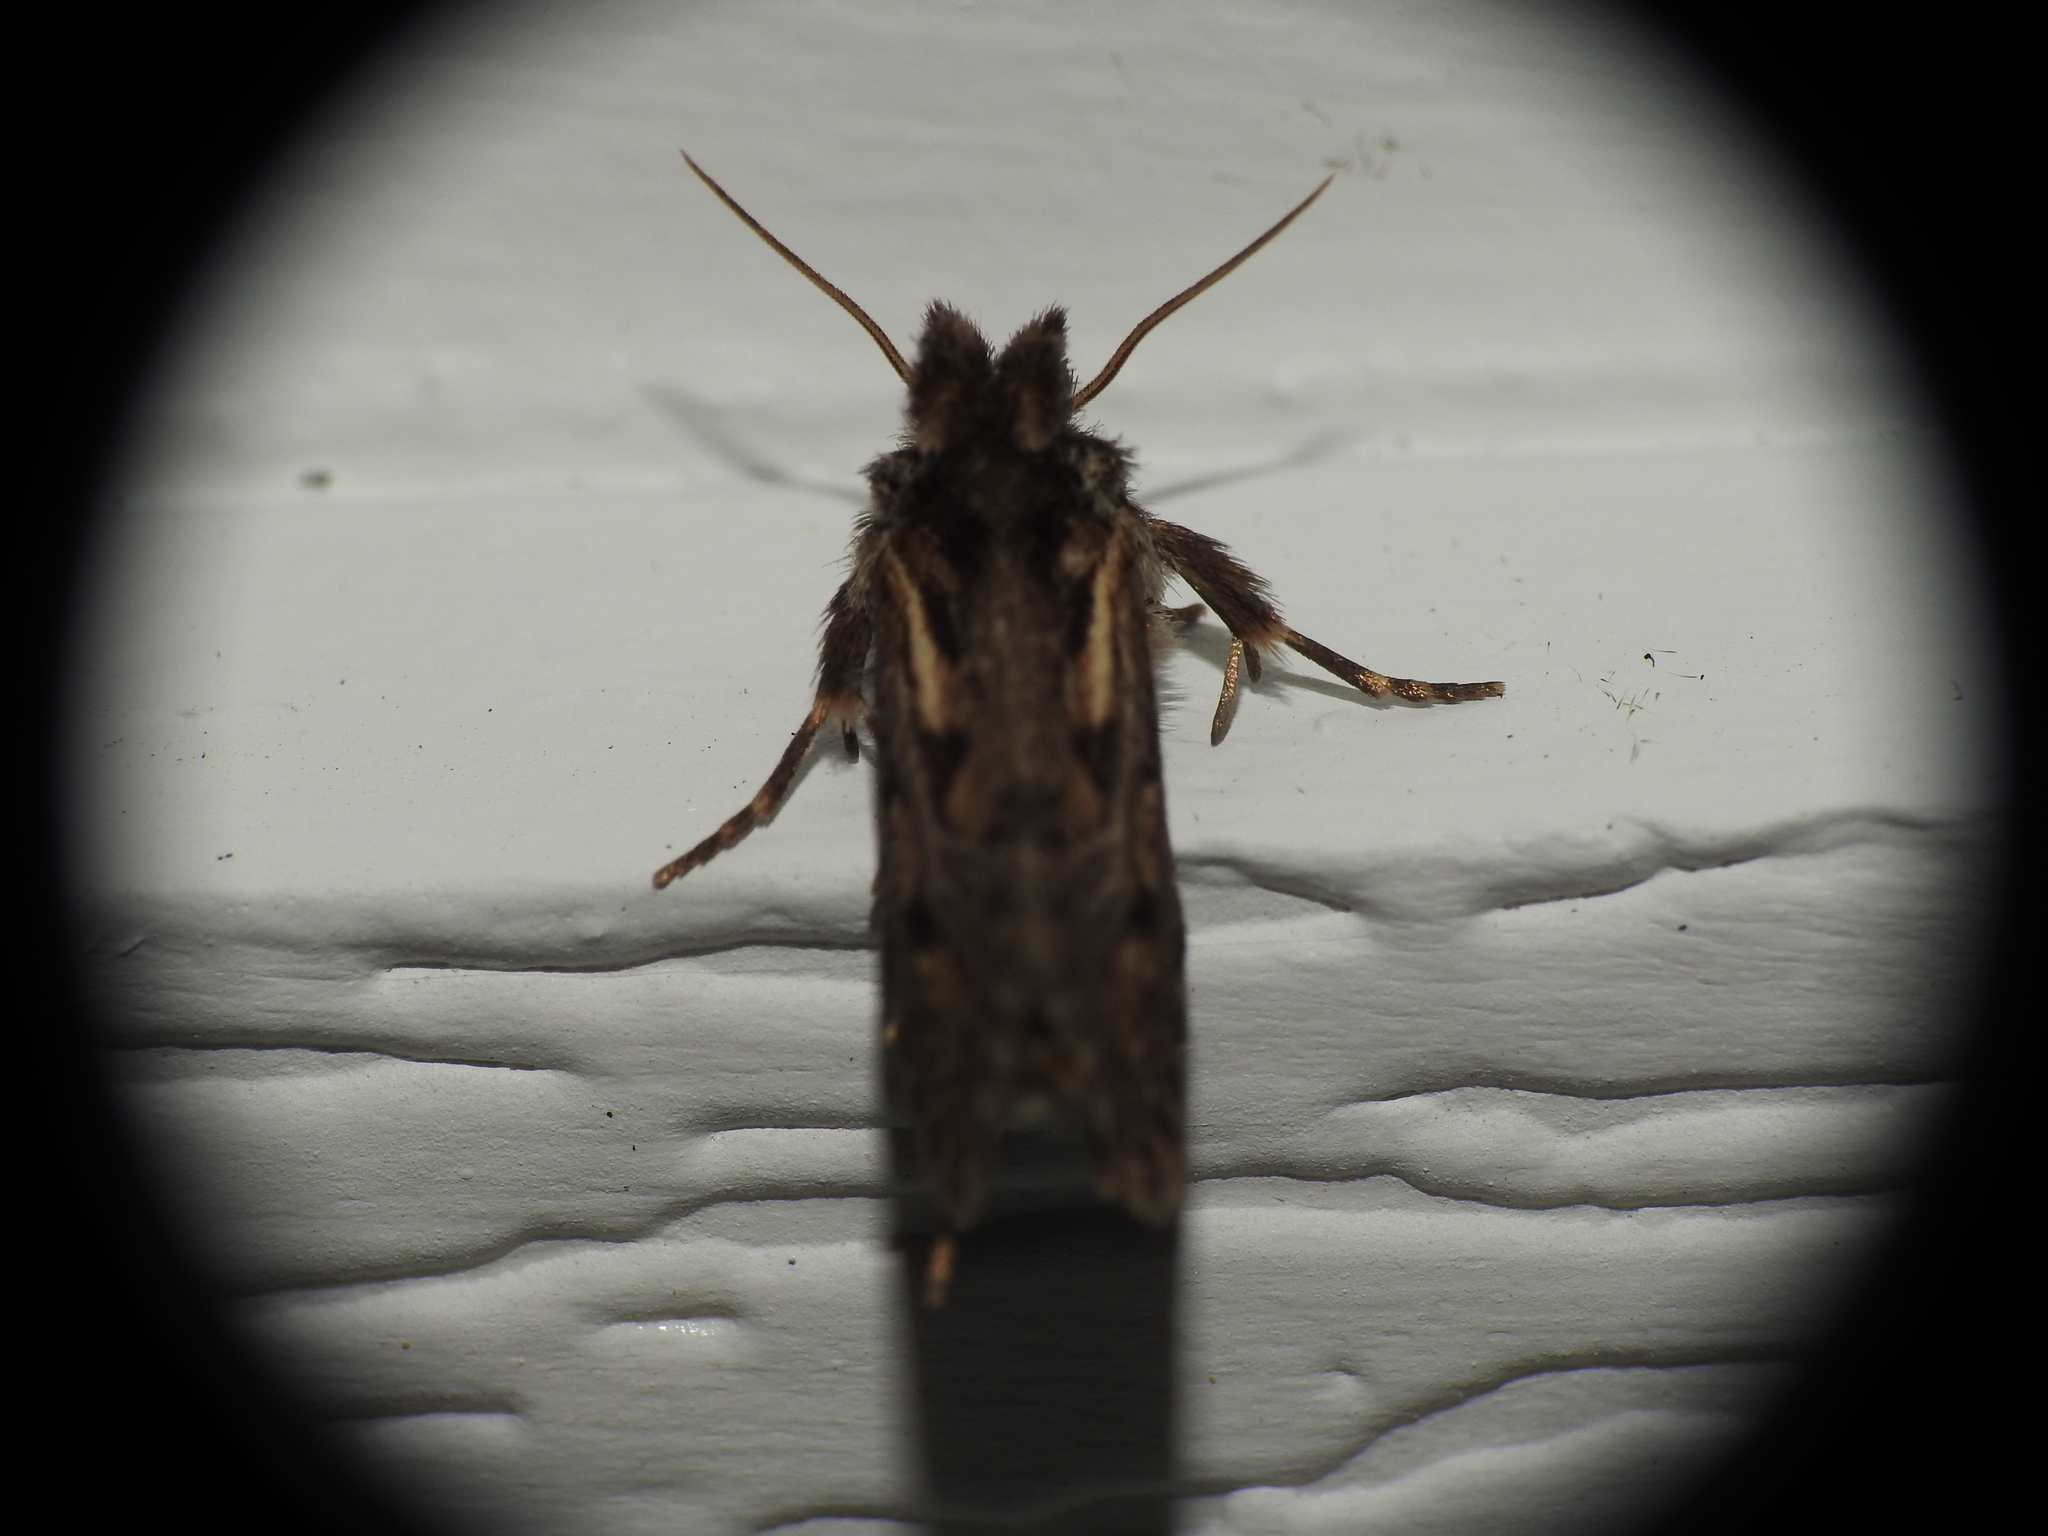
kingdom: Animalia
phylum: Arthropoda
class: Insecta
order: Lepidoptera
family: Tineidae
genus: Acrolophus
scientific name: Acrolophus popeanella
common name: Clemens' grass tubeworm moth
